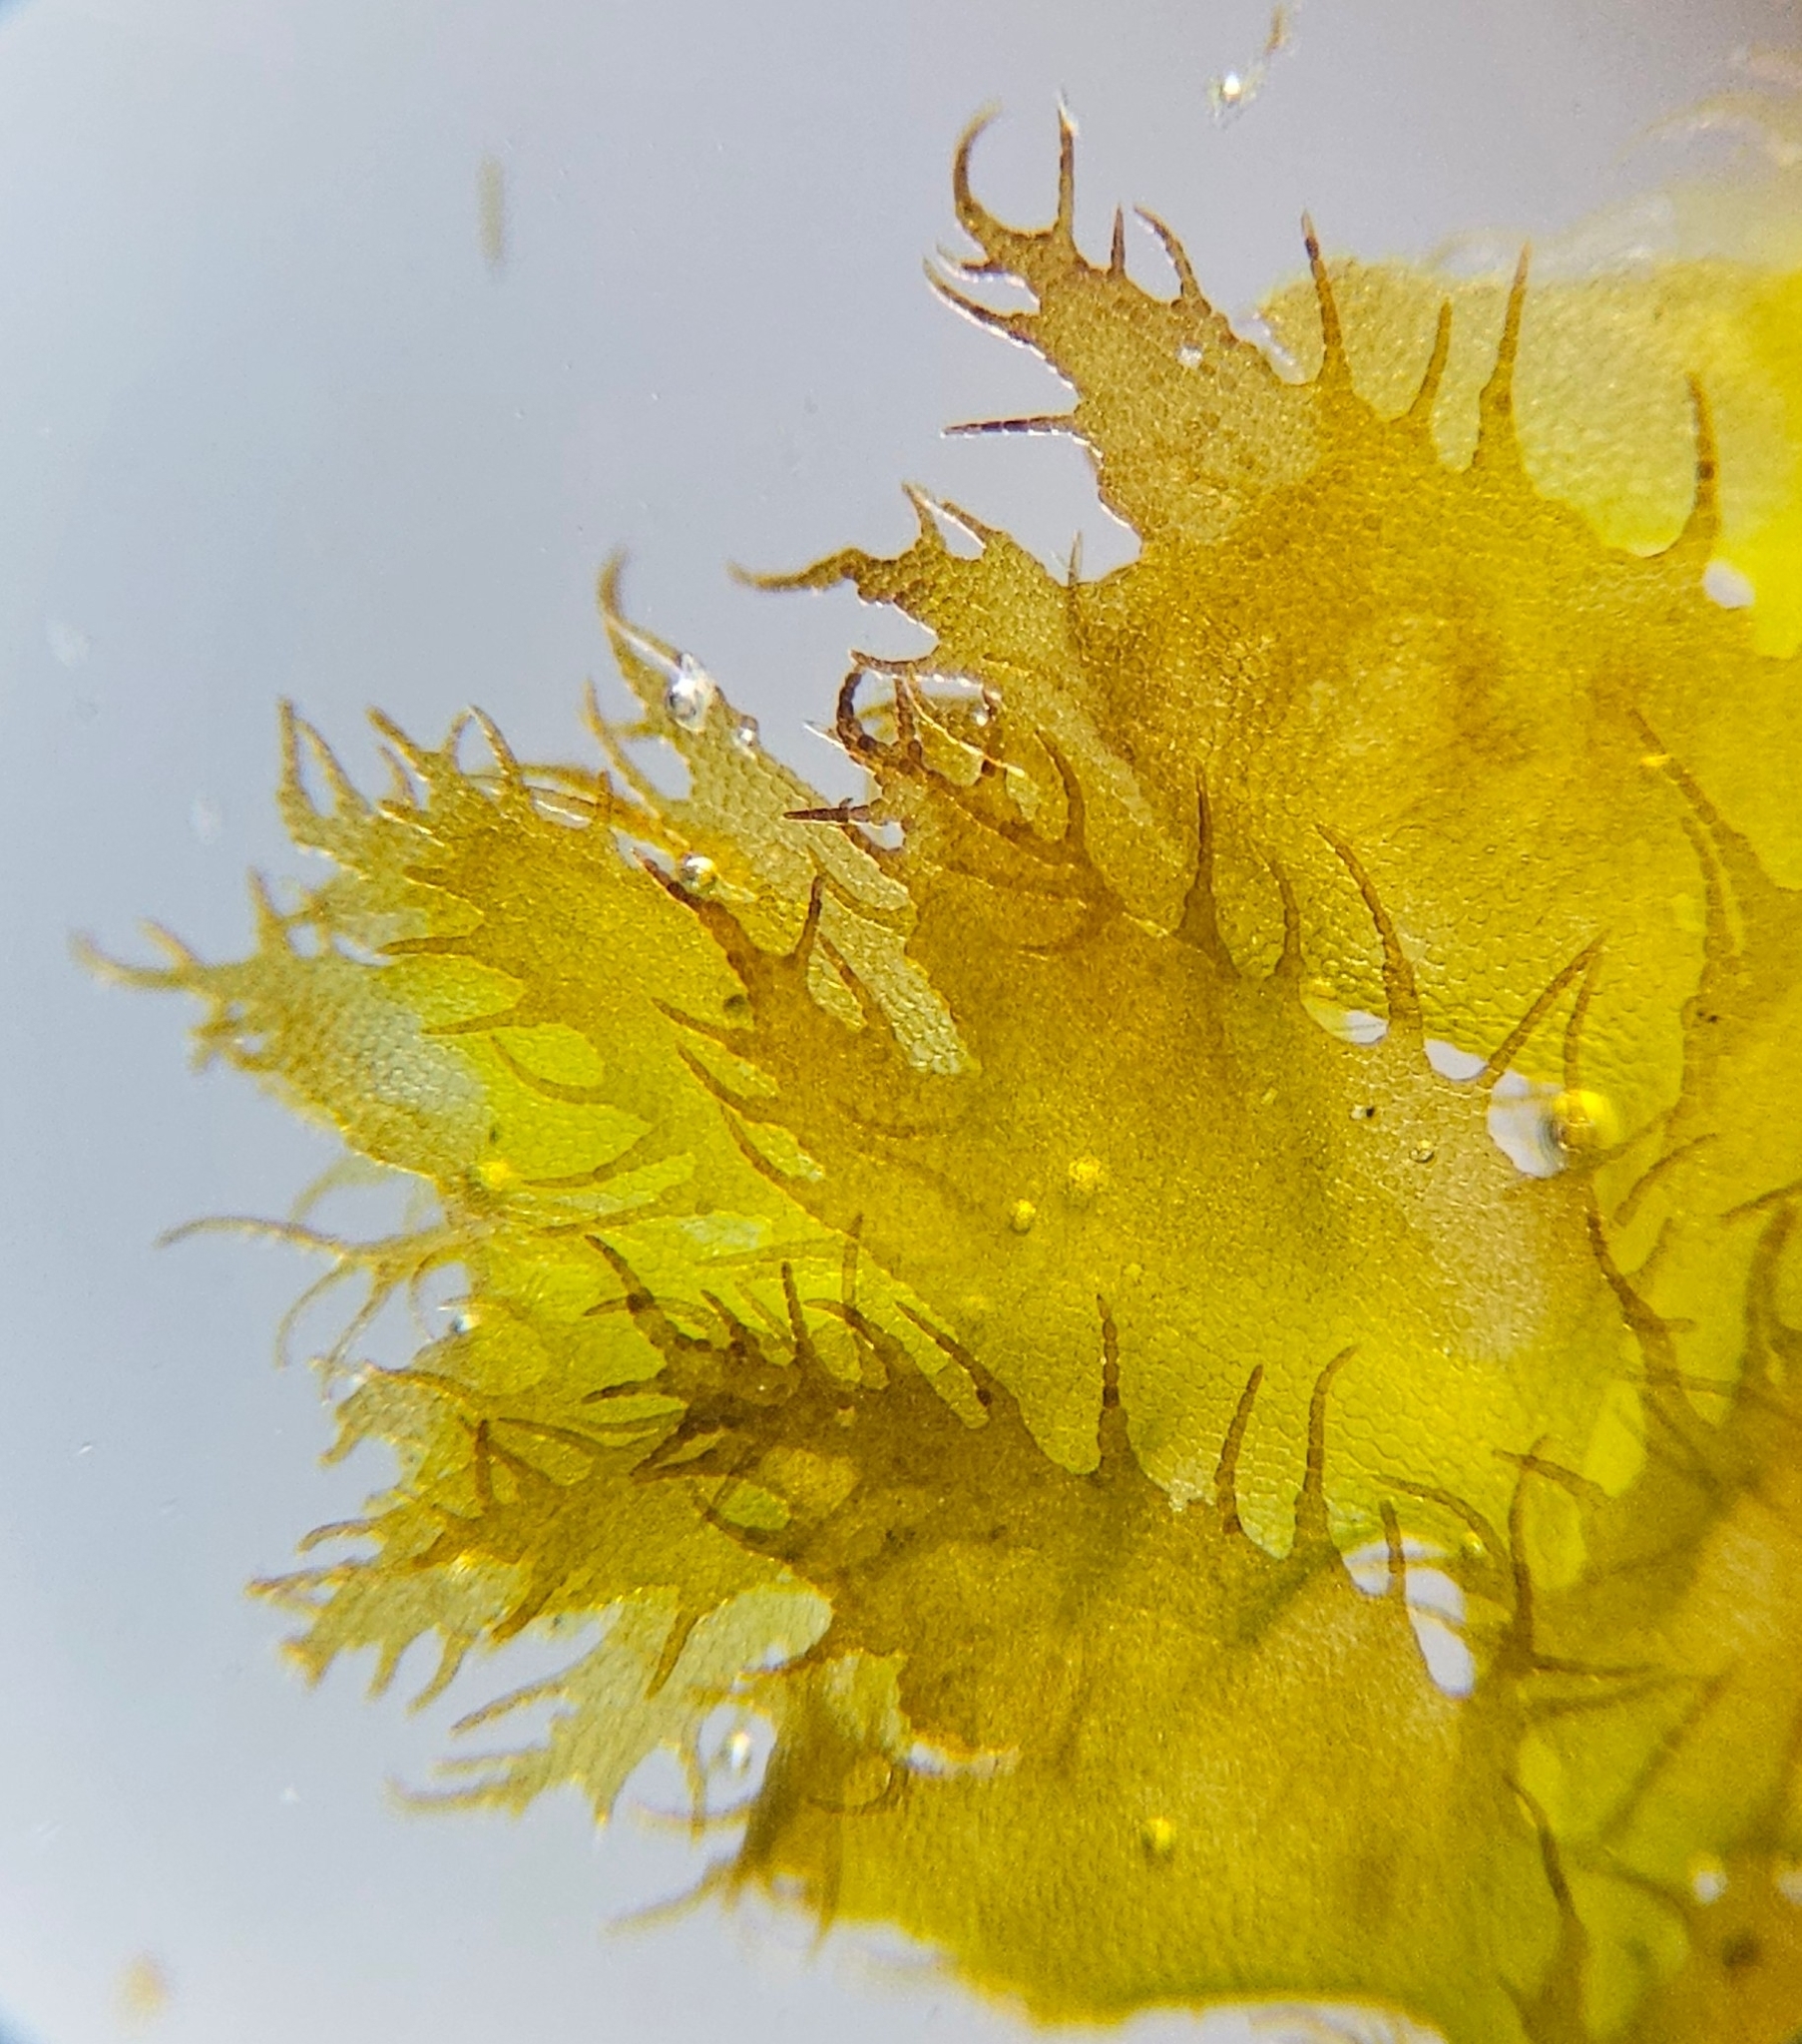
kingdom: Plantae
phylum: Marchantiophyta
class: Jungermanniopsida
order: Ptilidiales
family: Ptilidiaceae
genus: Ptilidium
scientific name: Ptilidium ciliare
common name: Ciliate fringewort
